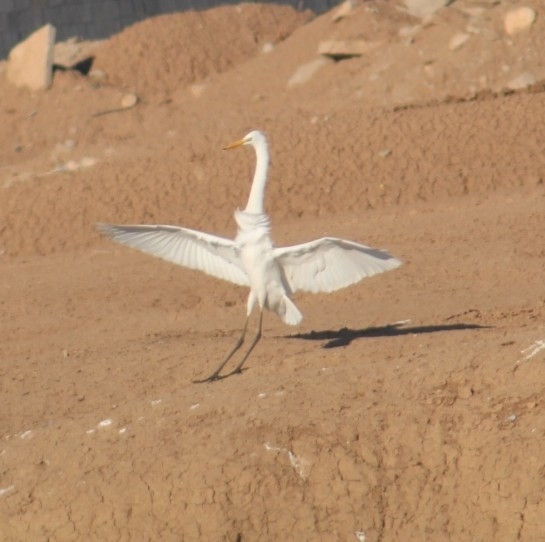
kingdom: Animalia
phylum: Chordata
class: Aves
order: Pelecaniformes
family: Ardeidae
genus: Ardea
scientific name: Ardea alba
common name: Great egret
